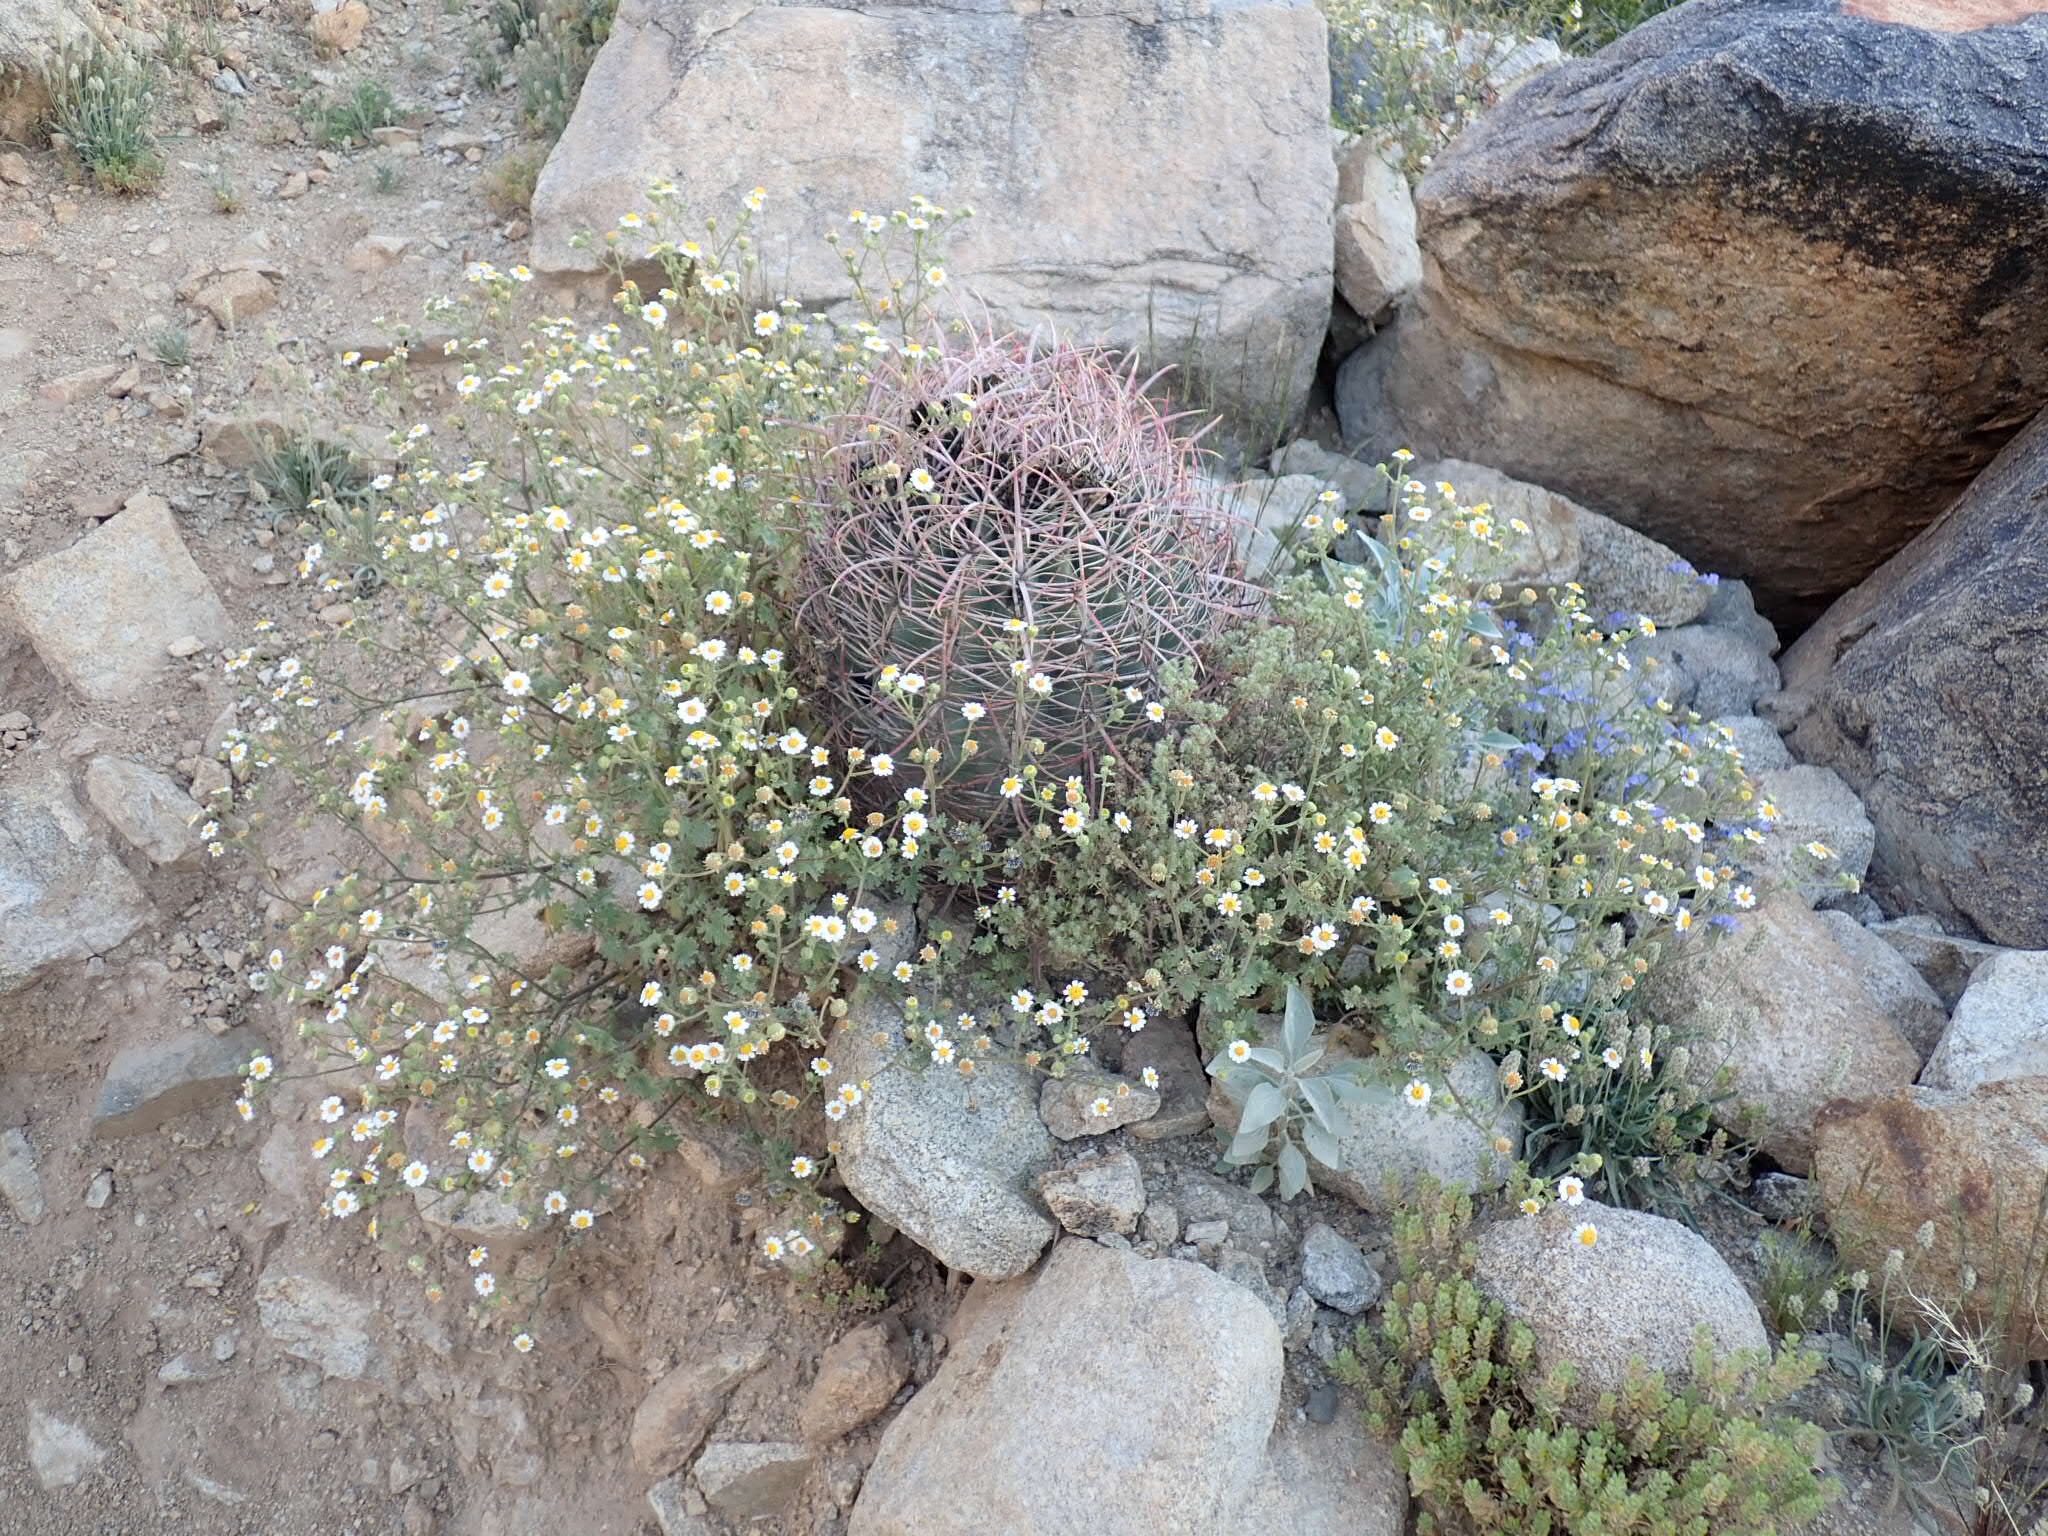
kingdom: Plantae
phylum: Tracheophyta
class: Magnoliopsida
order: Asterales
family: Asteraceae
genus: Laphamia
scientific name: Laphamia emoryi
